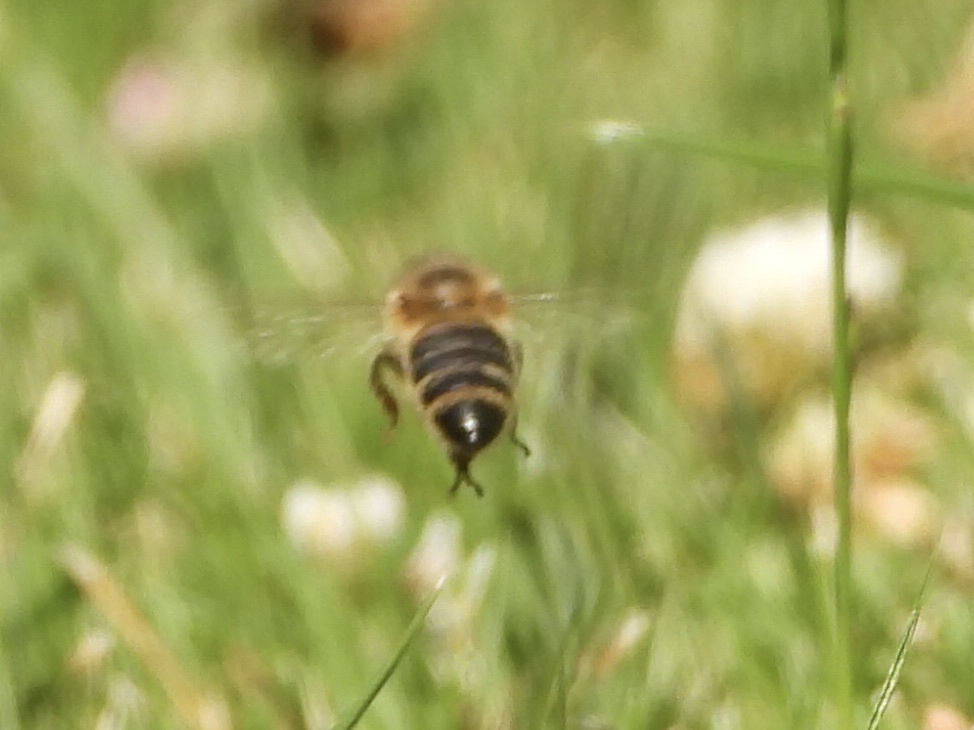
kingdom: Animalia
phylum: Arthropoda
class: Insecta
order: Hymenoptera
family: Apidae
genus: Apis
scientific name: Apis mellifera
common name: Honey bee
